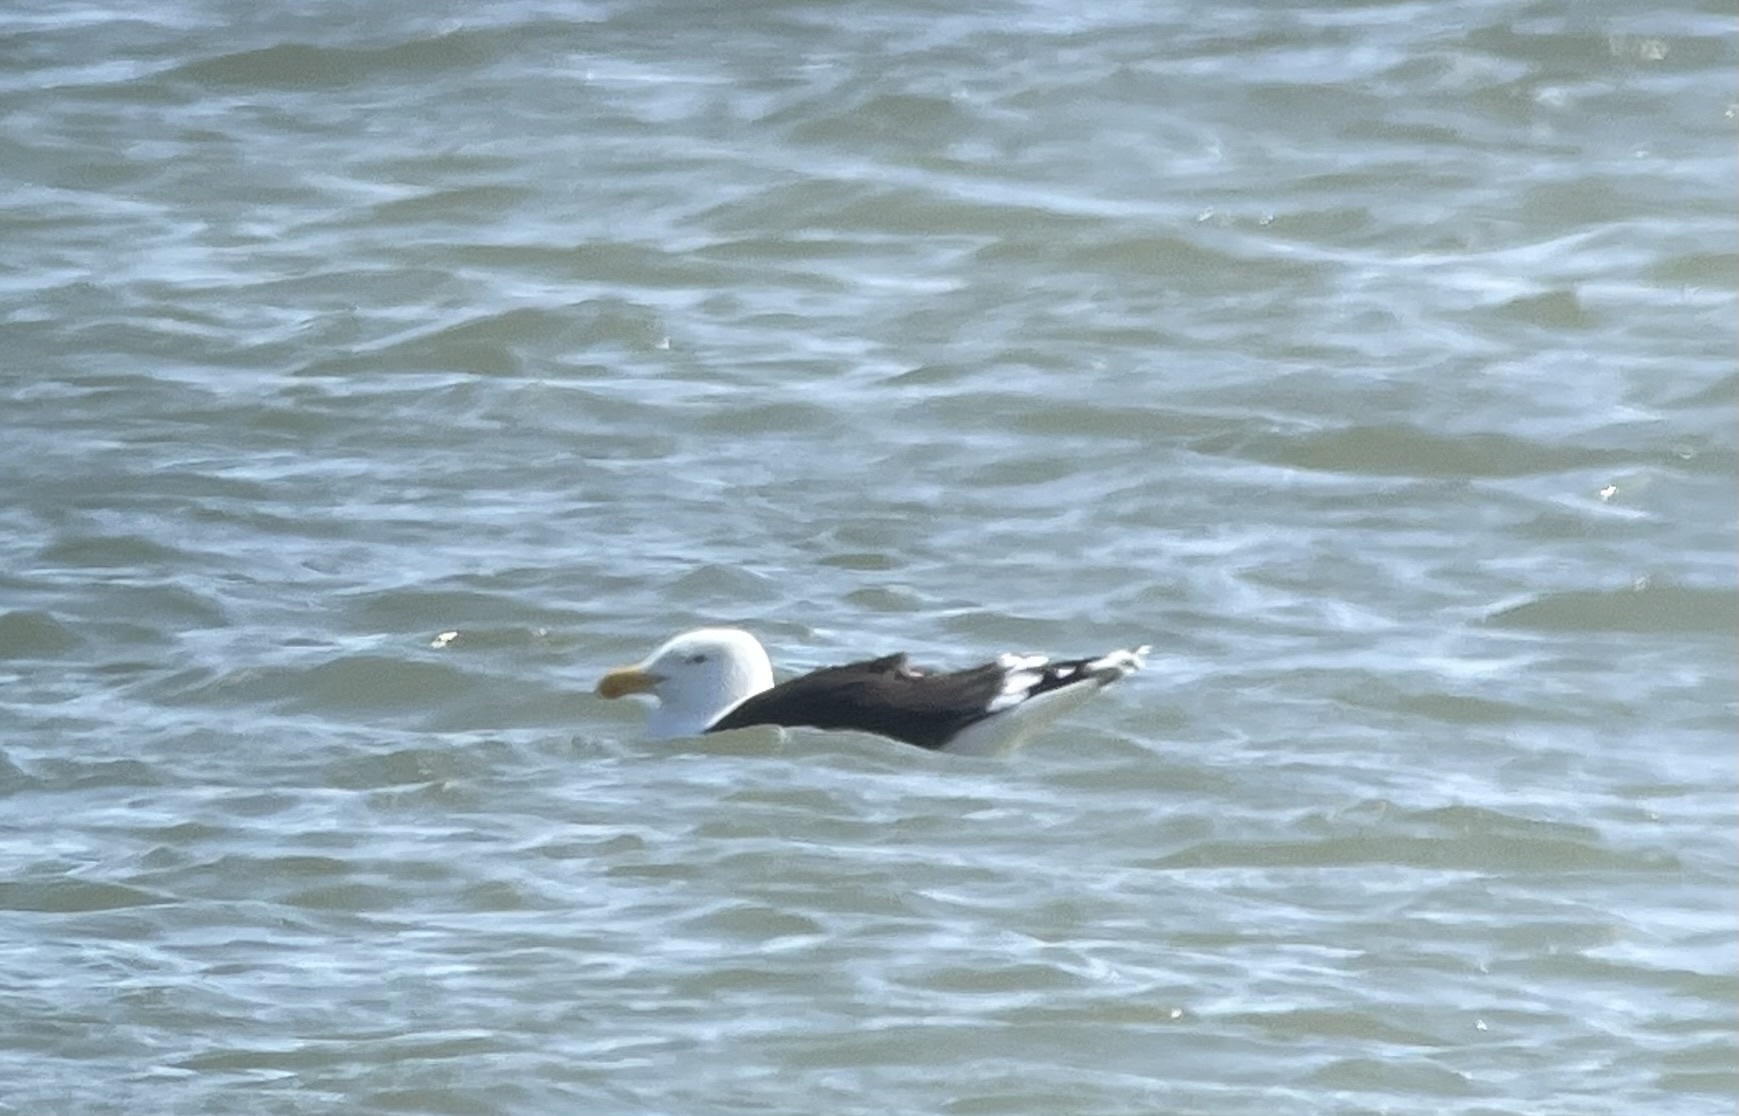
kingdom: Animalia
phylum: Chordata
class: Aves
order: Charadriiformes
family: Laridae
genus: Larus
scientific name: Larus marinus
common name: Great black-backed gull
